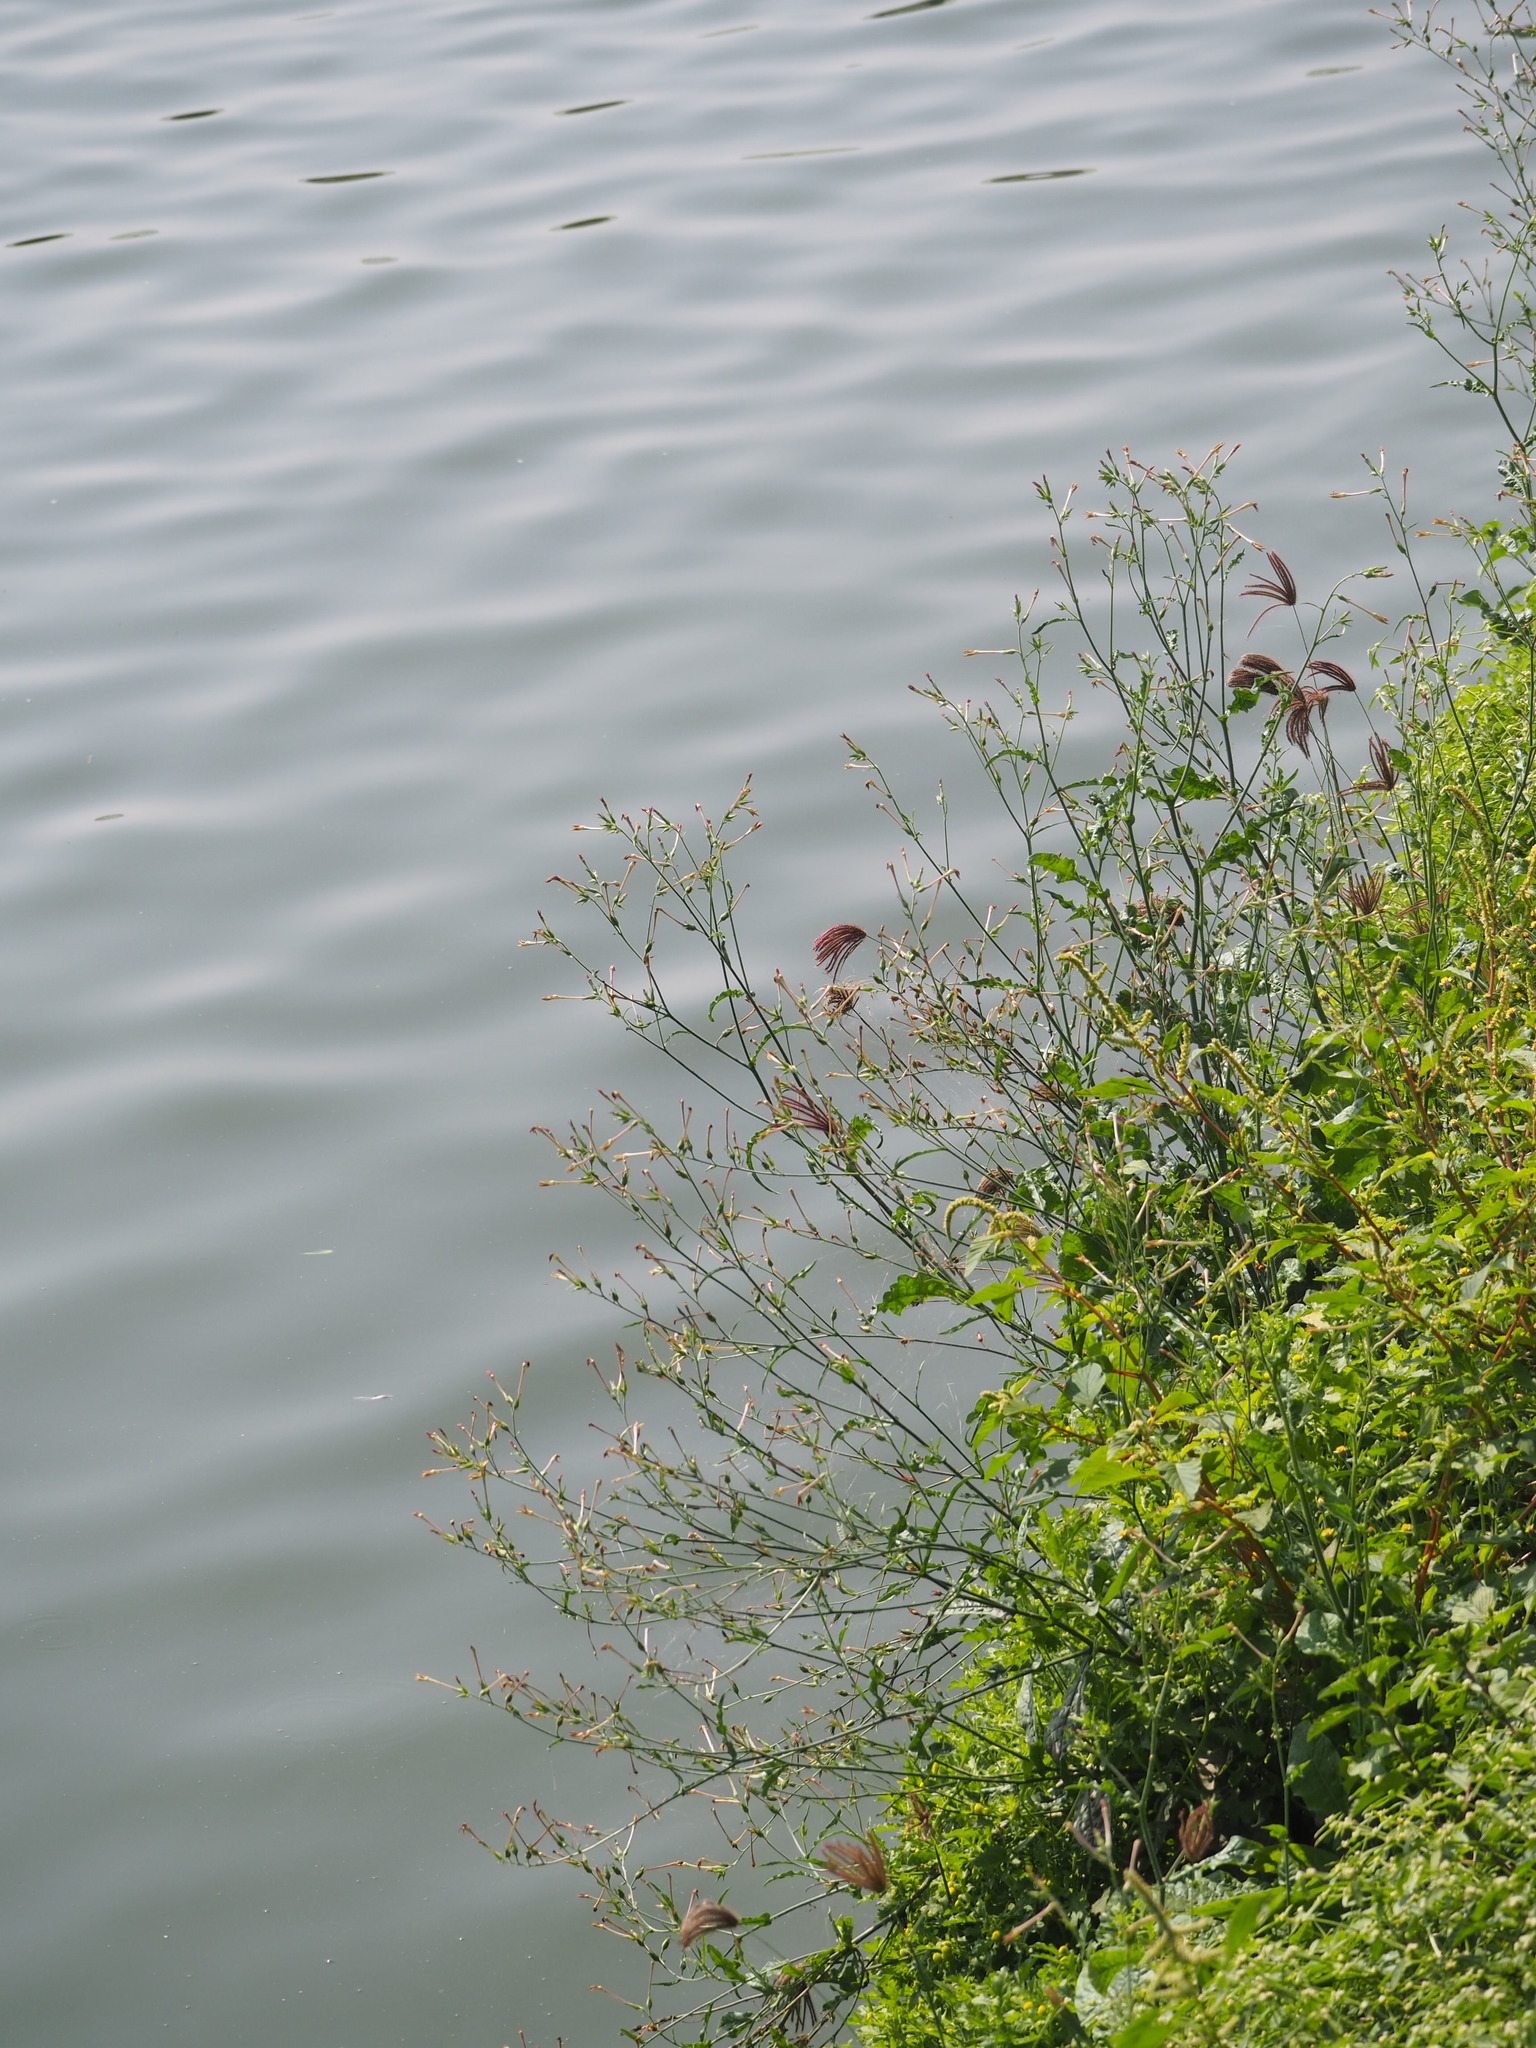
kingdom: Plantae
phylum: Tracheophyta
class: Magnoliopsida
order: Solanales
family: Solanaceae
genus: Nicotiana
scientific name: Nicotiana plumbaginifolia
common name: Tex-mex tobacco
